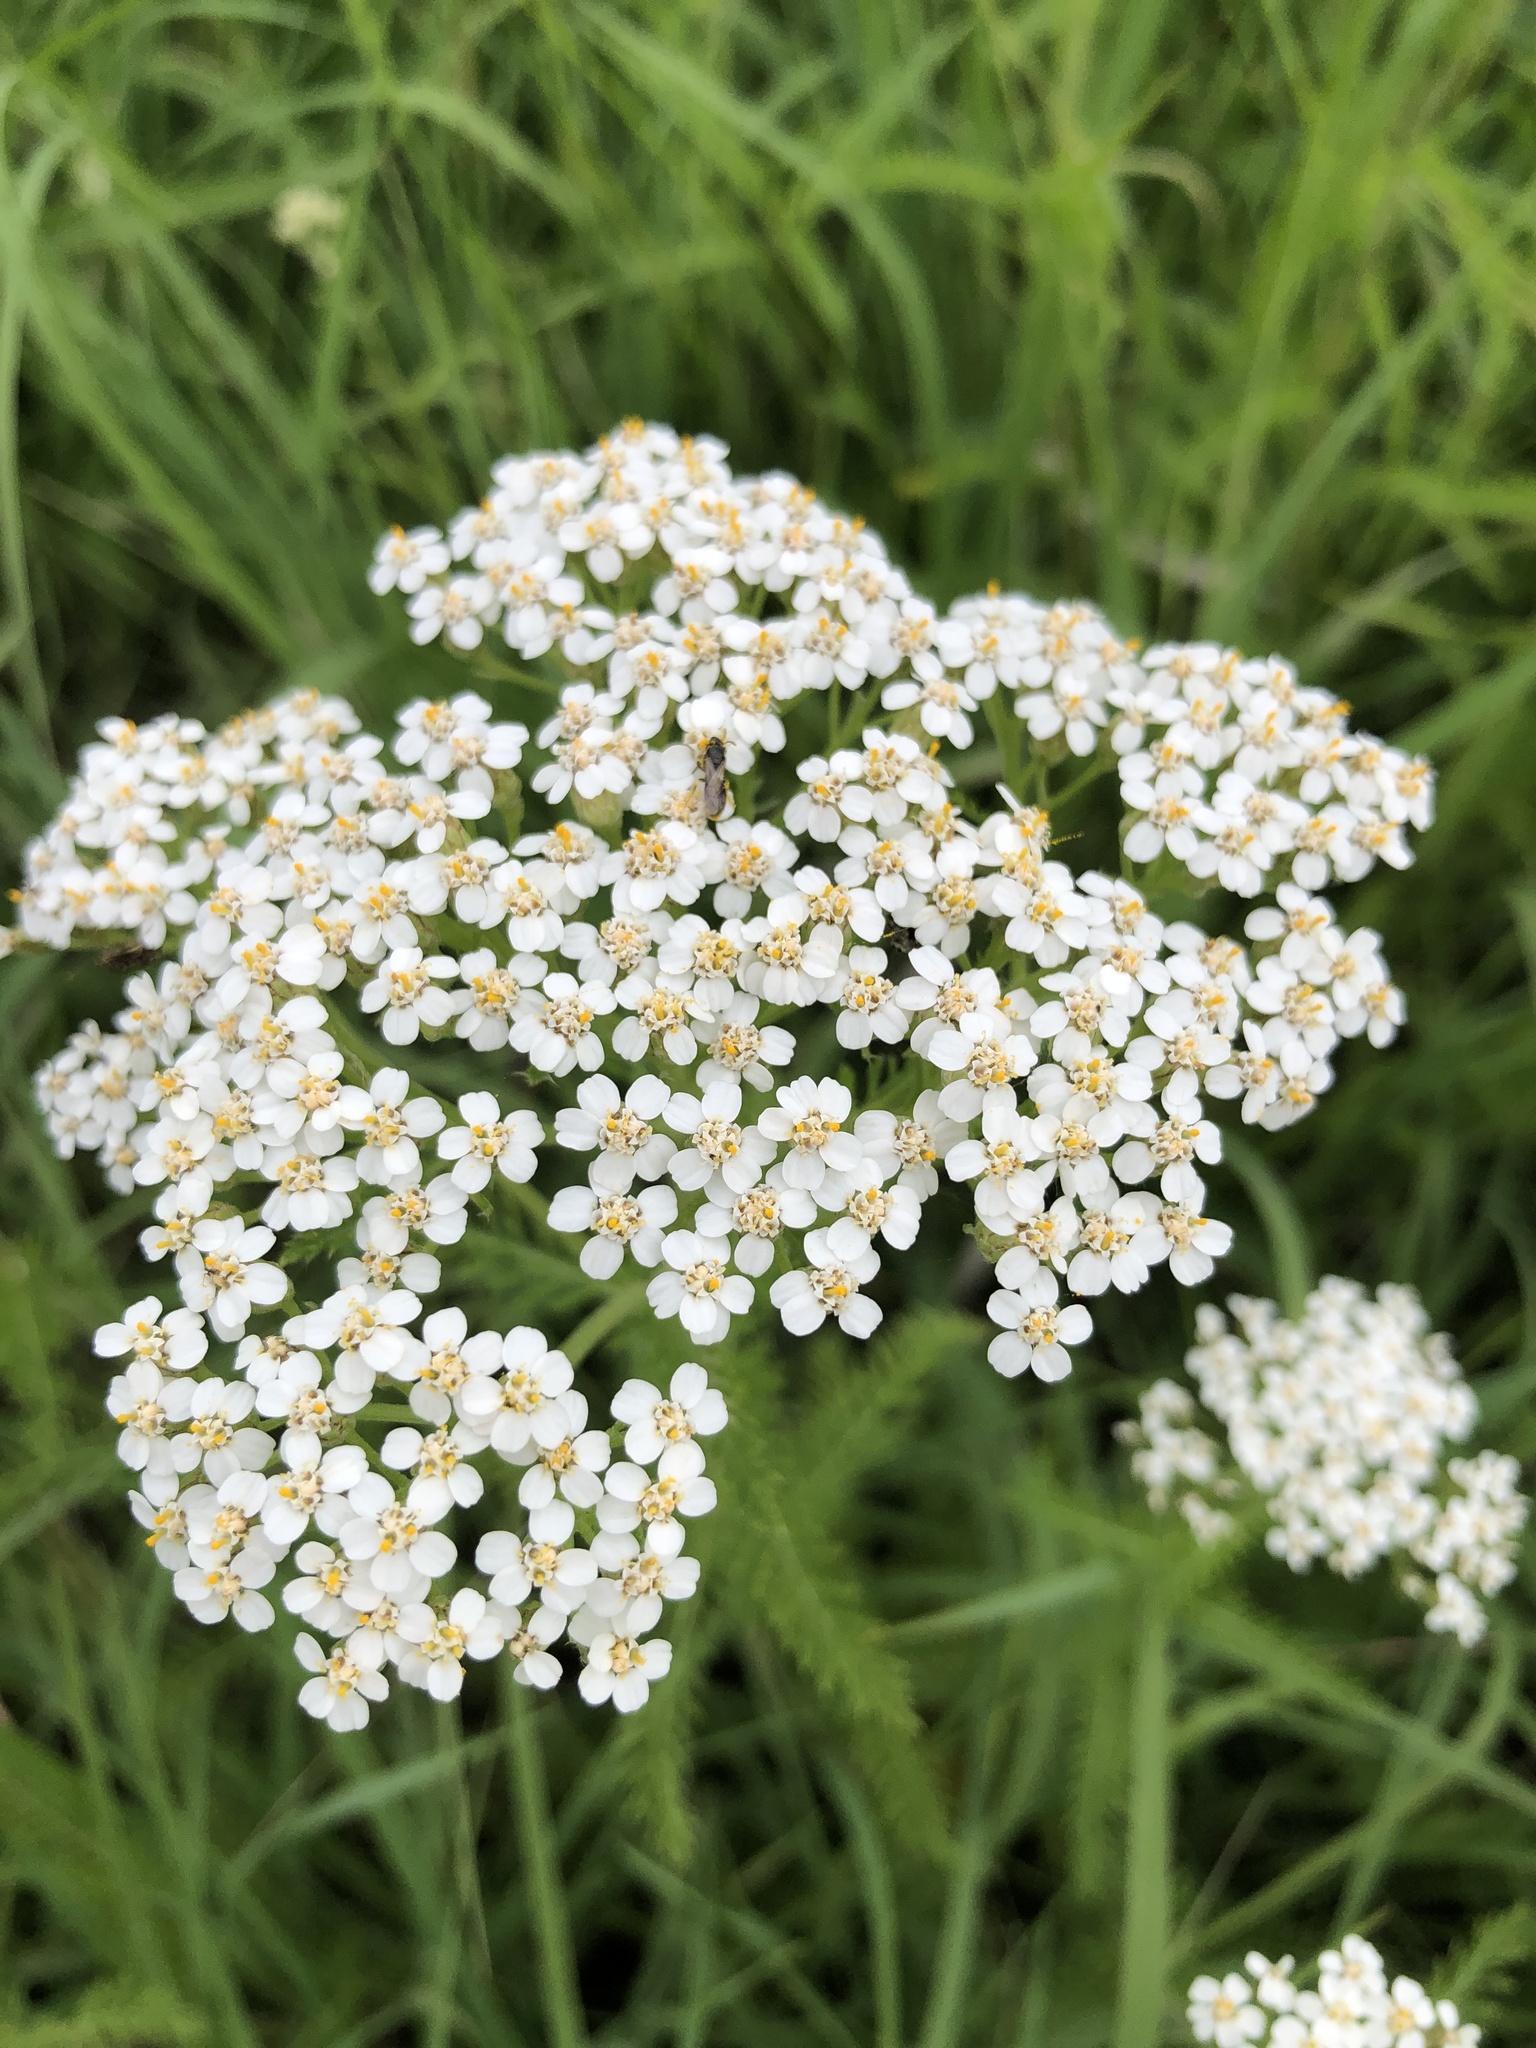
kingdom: Plantae
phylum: Tracheophyta
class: Magnoliopsida
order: Asterales
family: Asteraceae
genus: Achillea
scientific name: Achillea millefolium
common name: Yarrow
